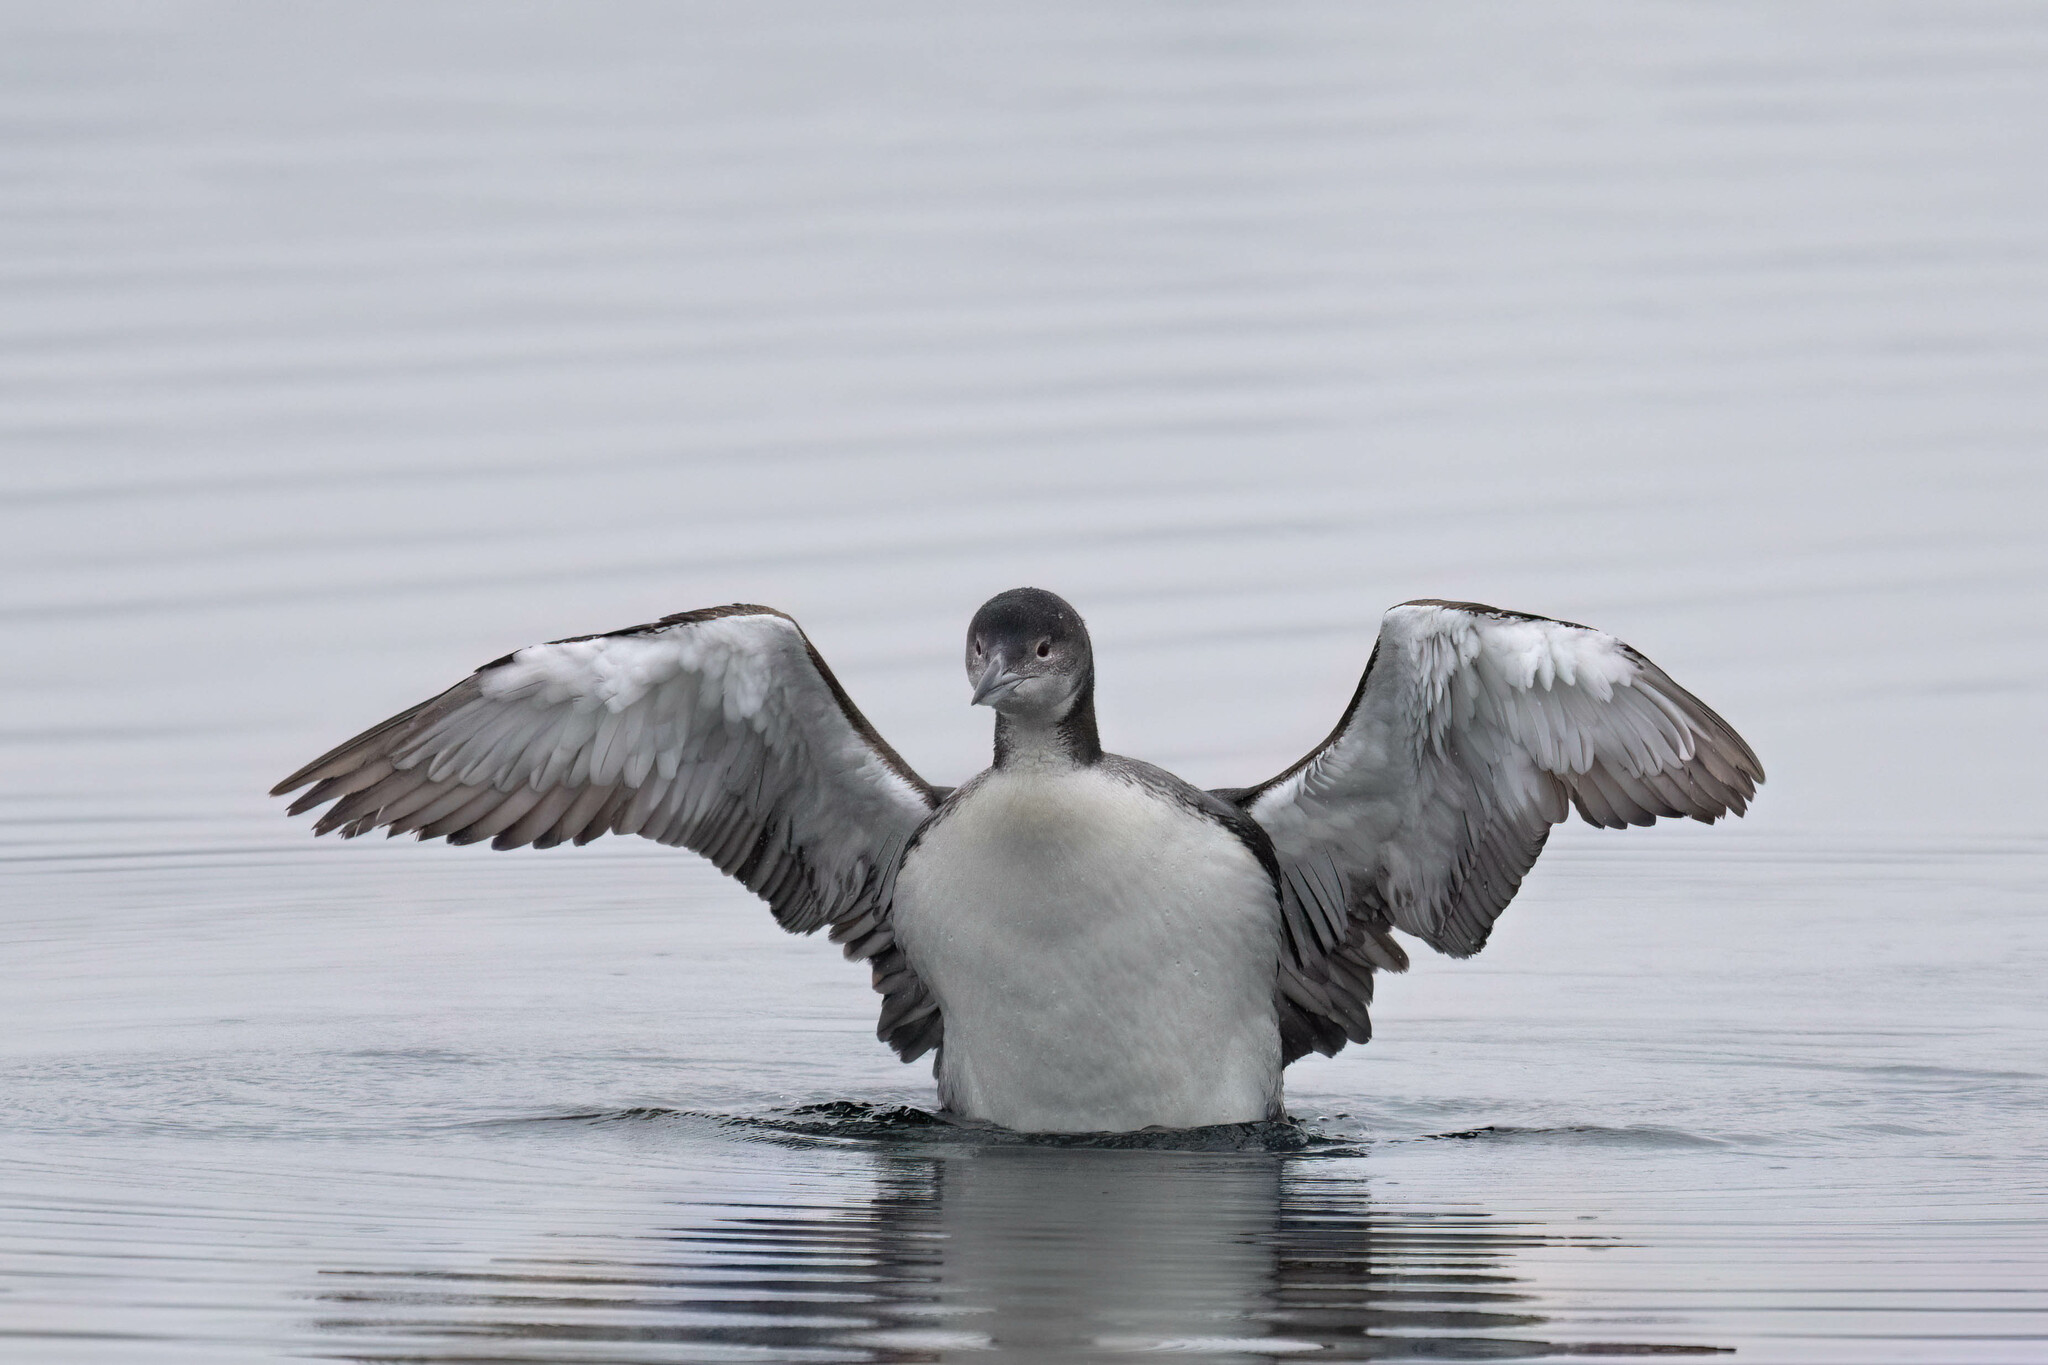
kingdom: Animalia
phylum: Chordata
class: Aves
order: Gaviiformes
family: Gaviidae
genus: Gavia
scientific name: Gavia immer
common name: Common loon
